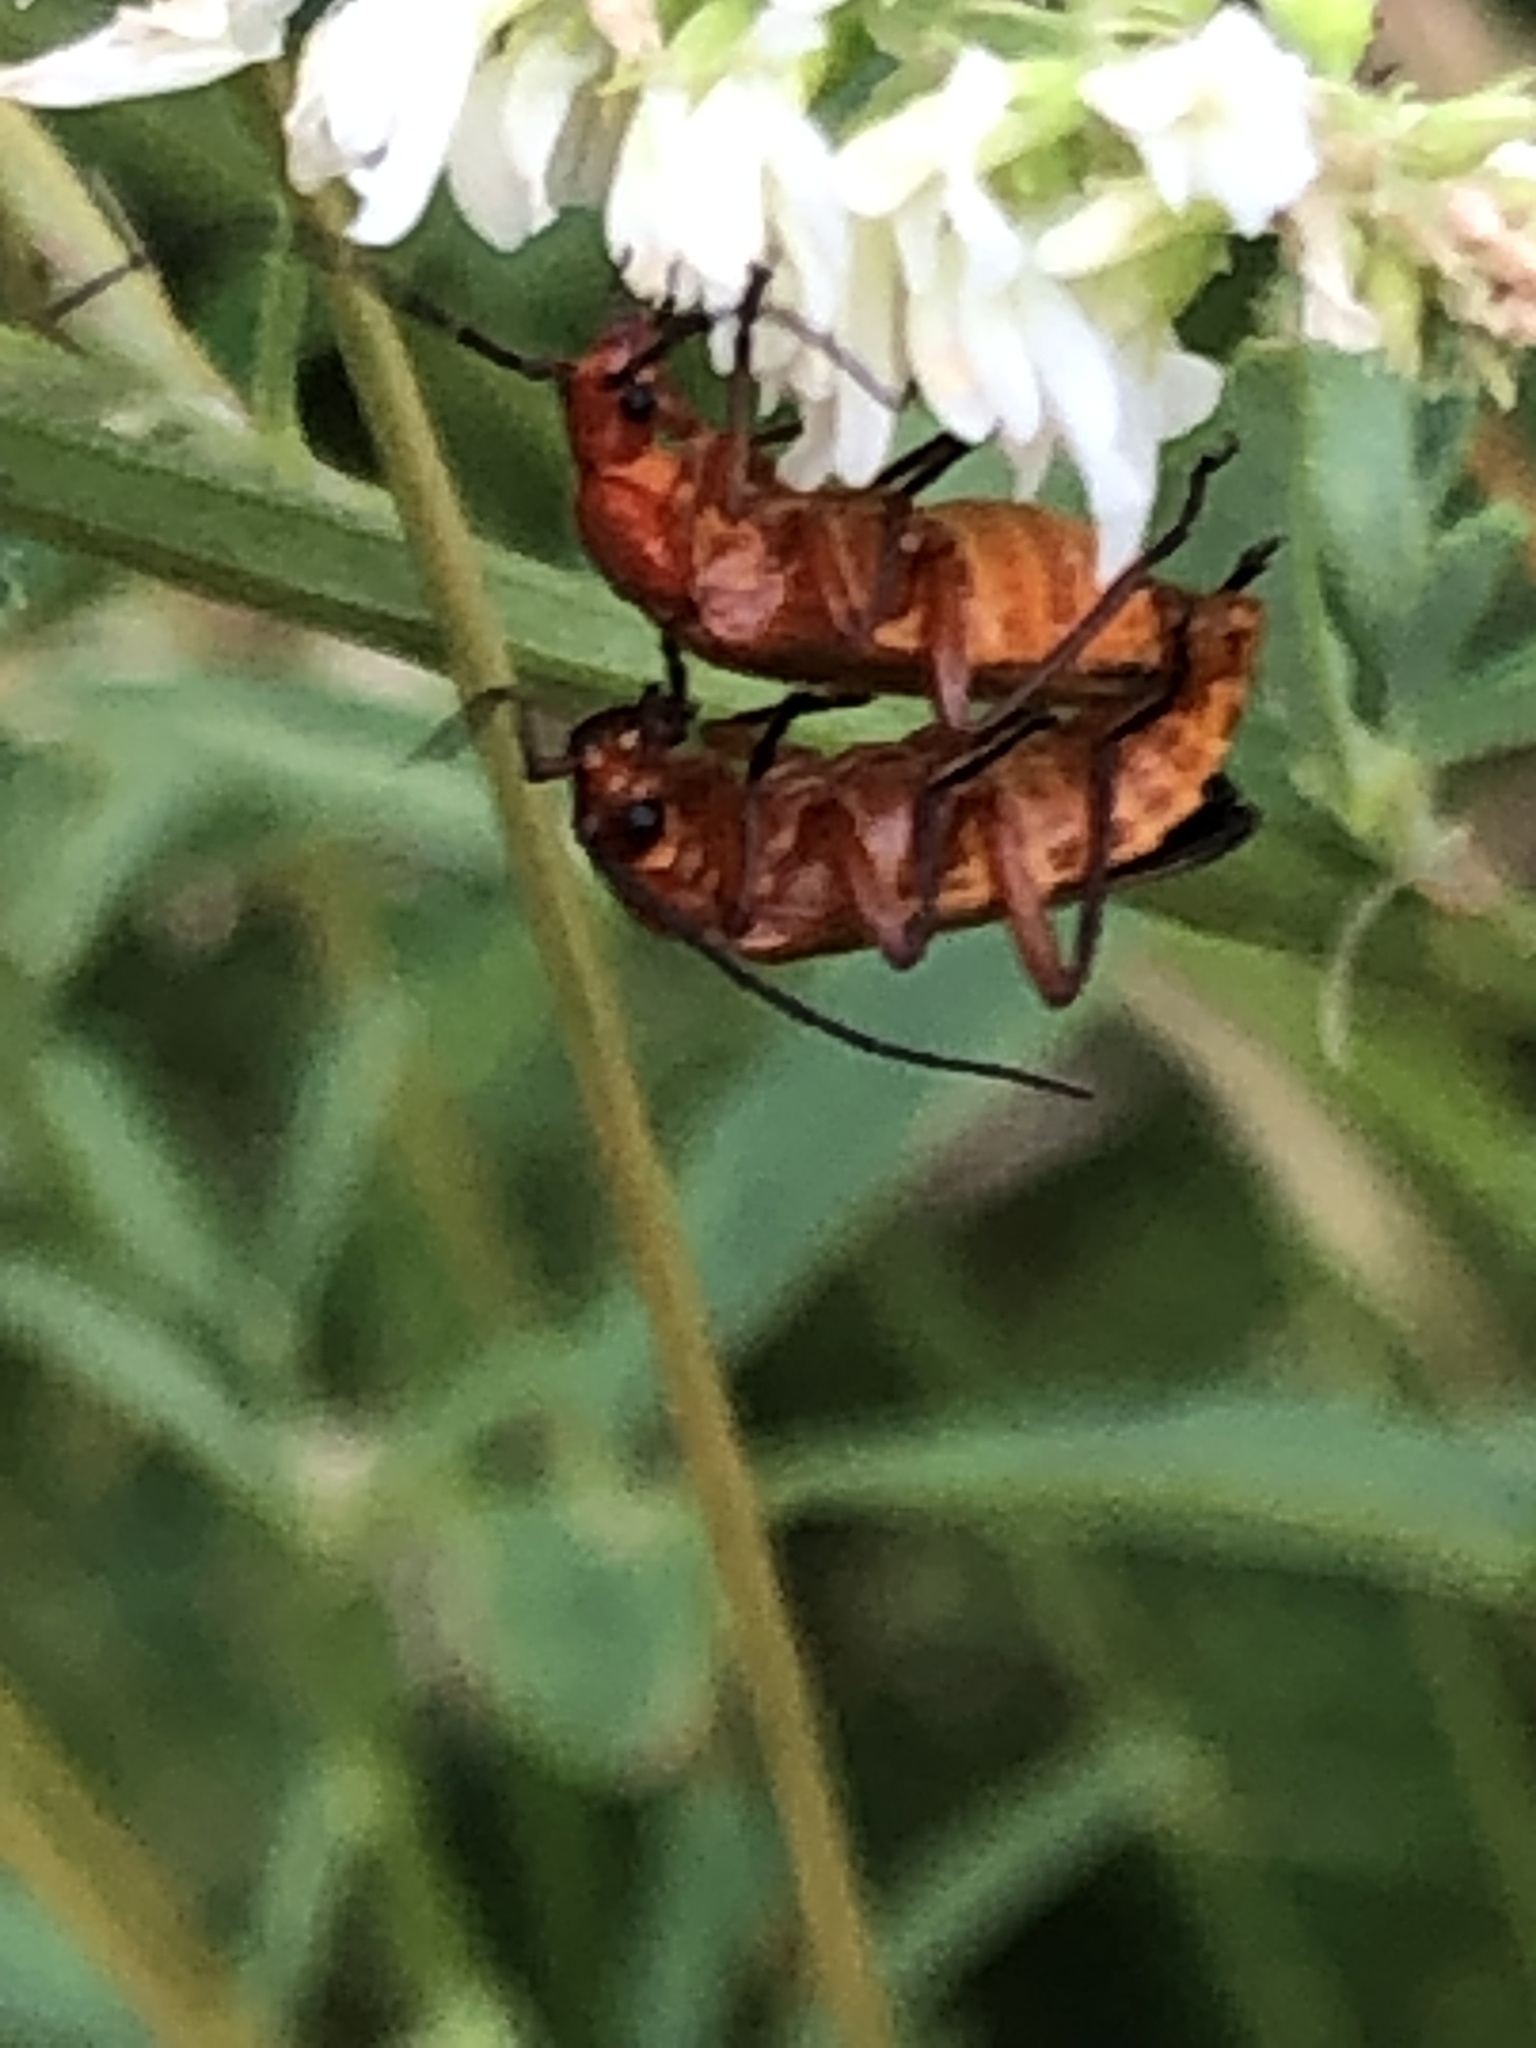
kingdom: Animalia
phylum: Arthropoda
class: Insecta
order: Coleoptera
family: Cantharidae
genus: Rhagonycha
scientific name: Rhagonycha fulva
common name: Common red soldier beetle
